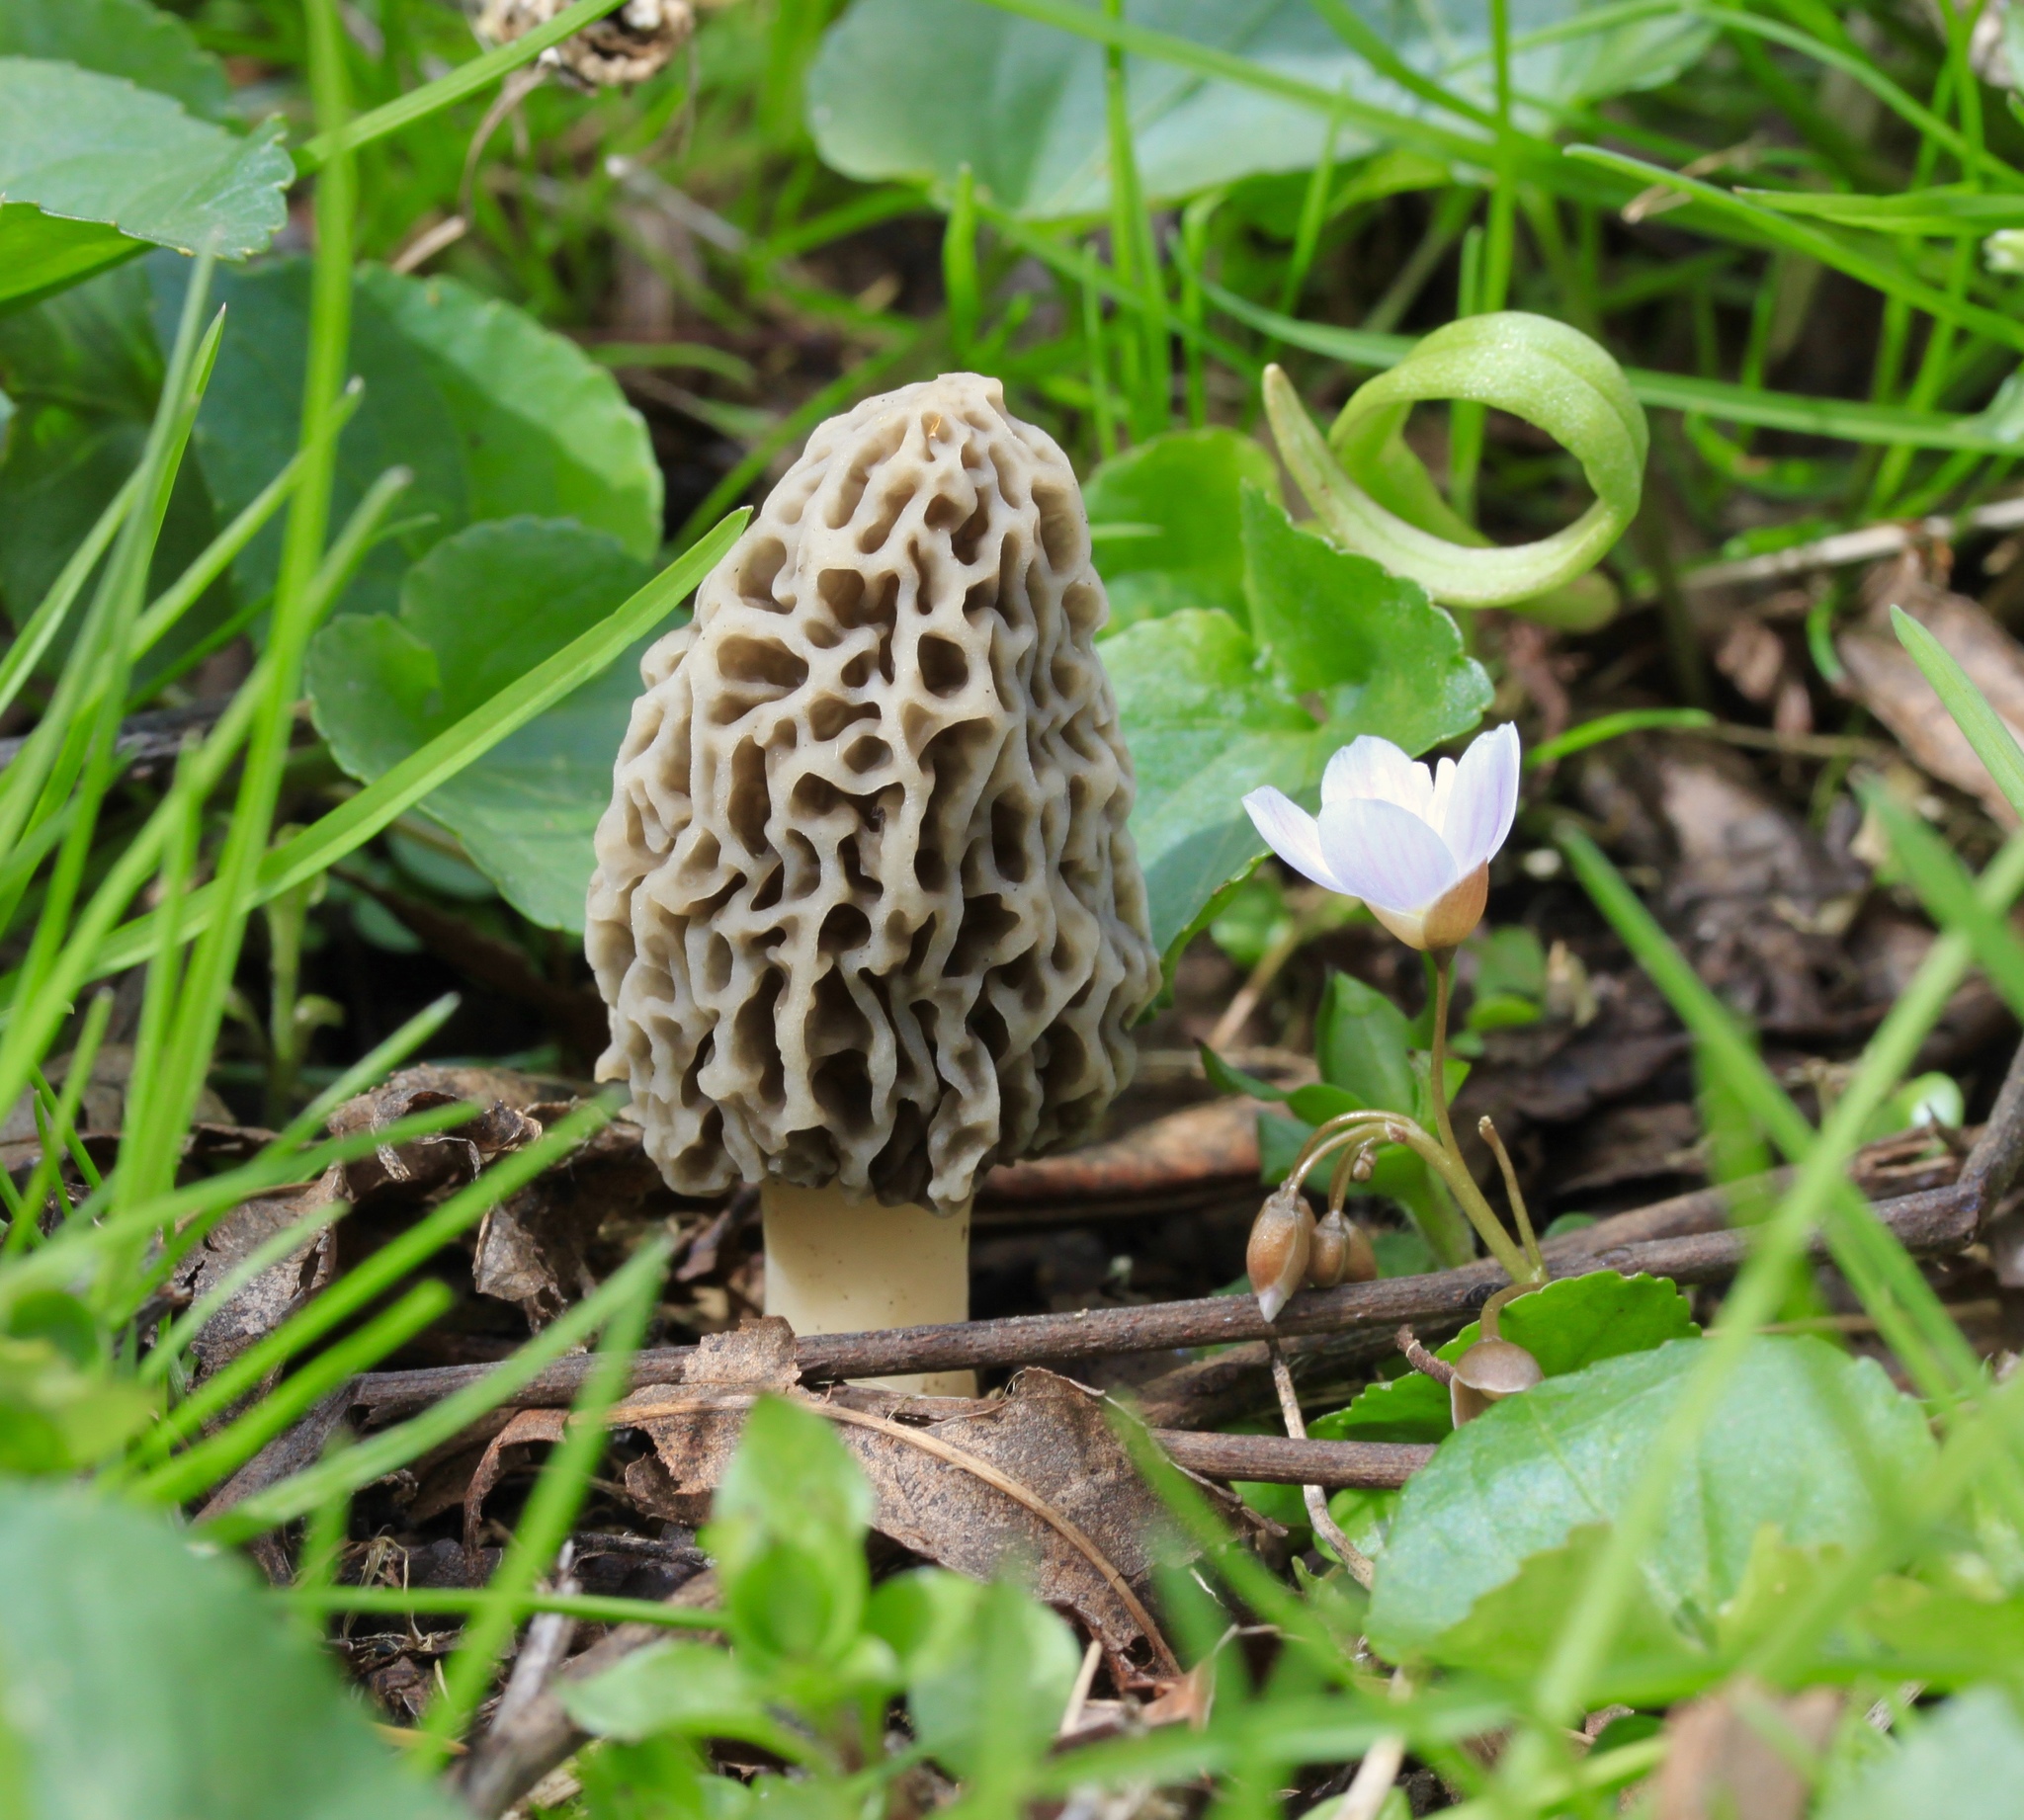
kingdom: Fungi
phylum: Ascomycota
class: Pezizomycetes
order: Pezizales
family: Morchellaceae
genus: Morchella
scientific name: Morchella americana
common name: White morel
